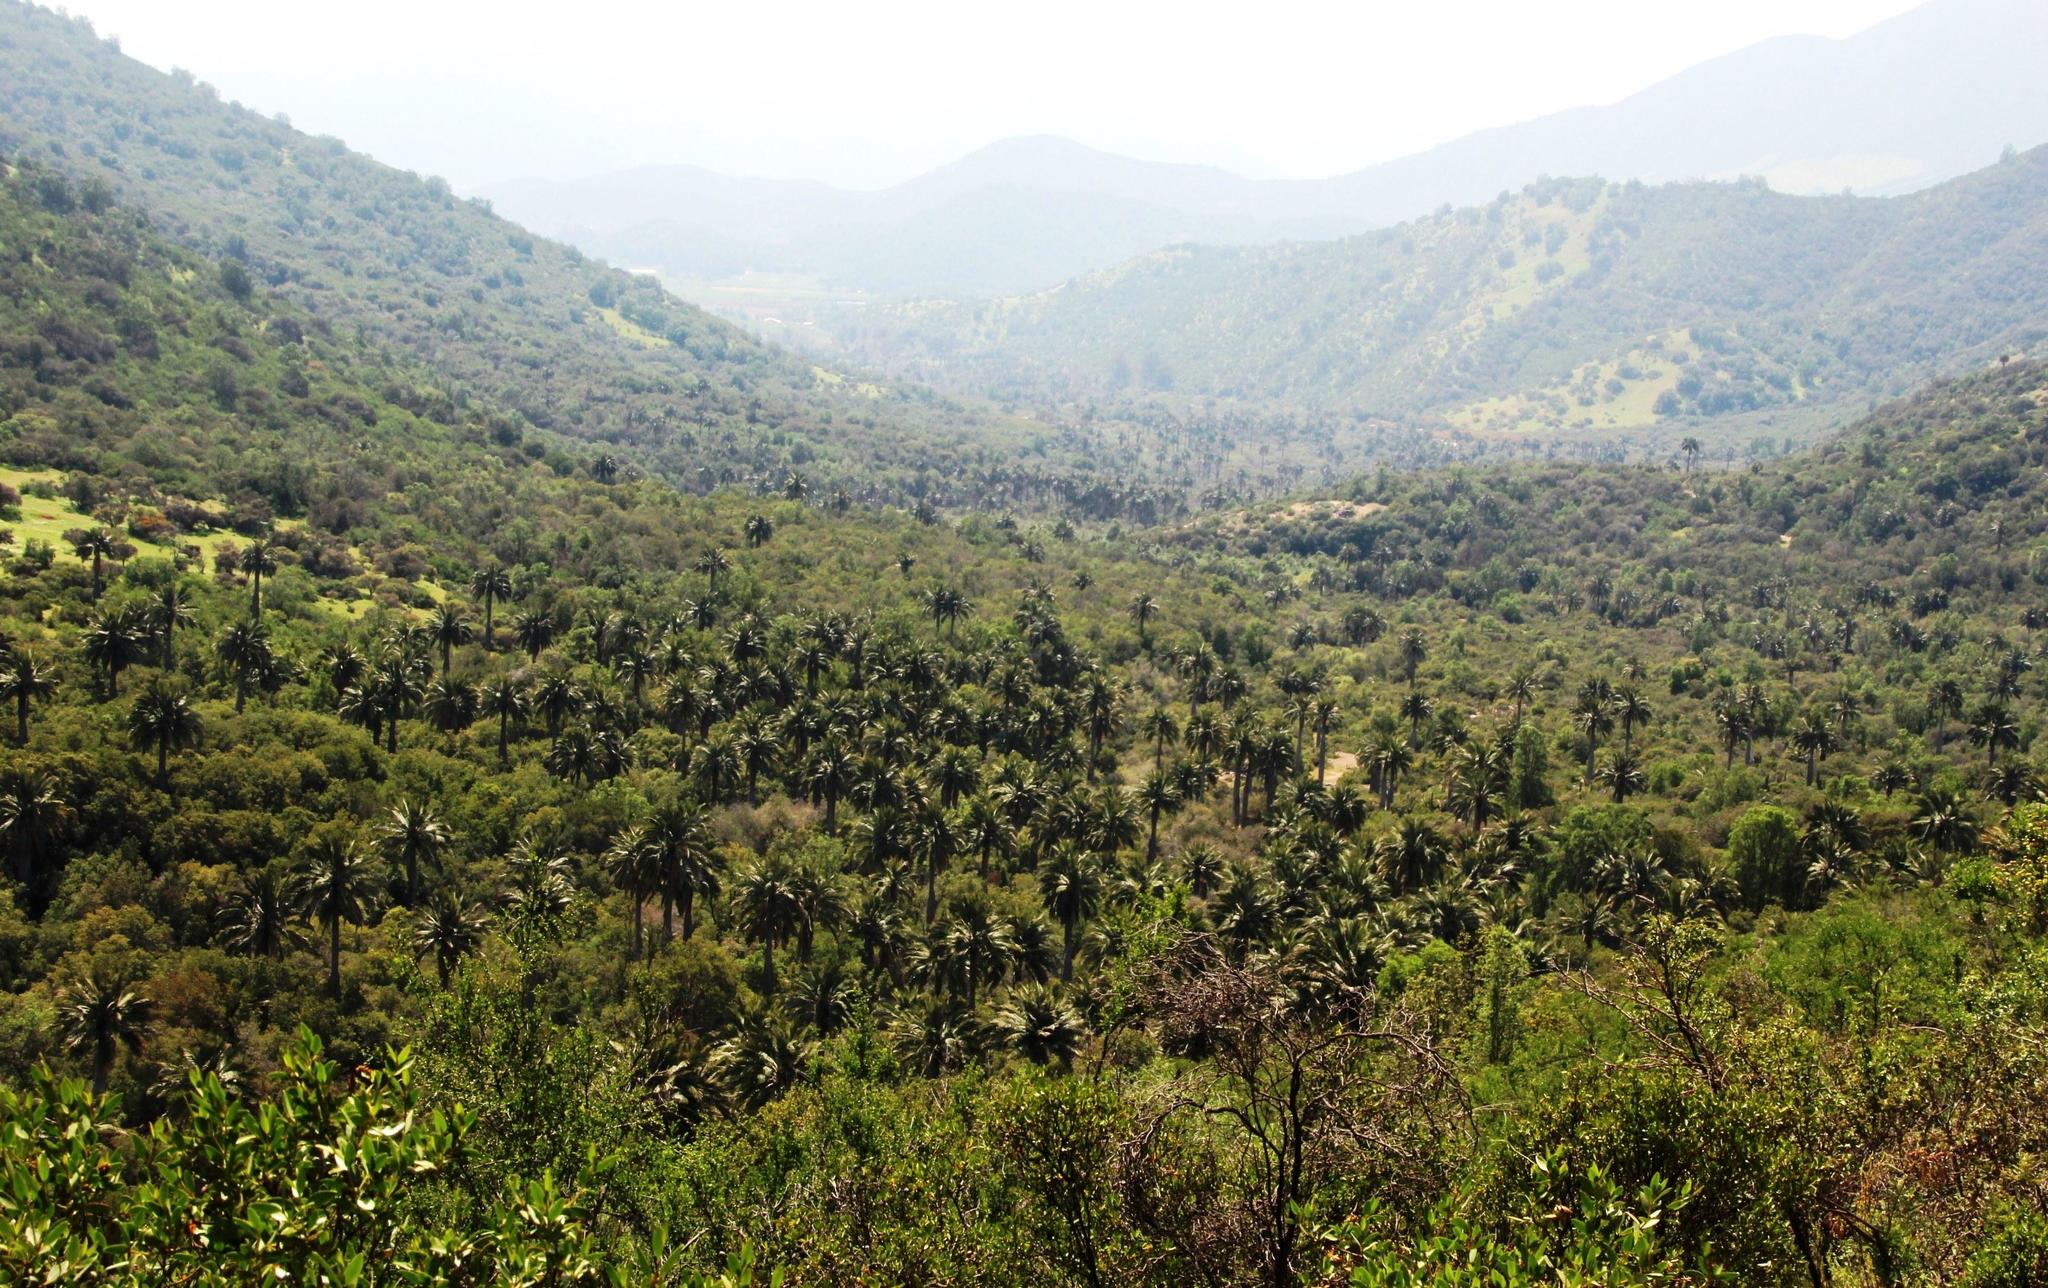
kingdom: Plantae
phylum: Tracheophyta
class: Liliopsida
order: Arecales
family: Arecaceae
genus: Jubaea
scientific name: Jubaea chilensis
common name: Coquito palm
